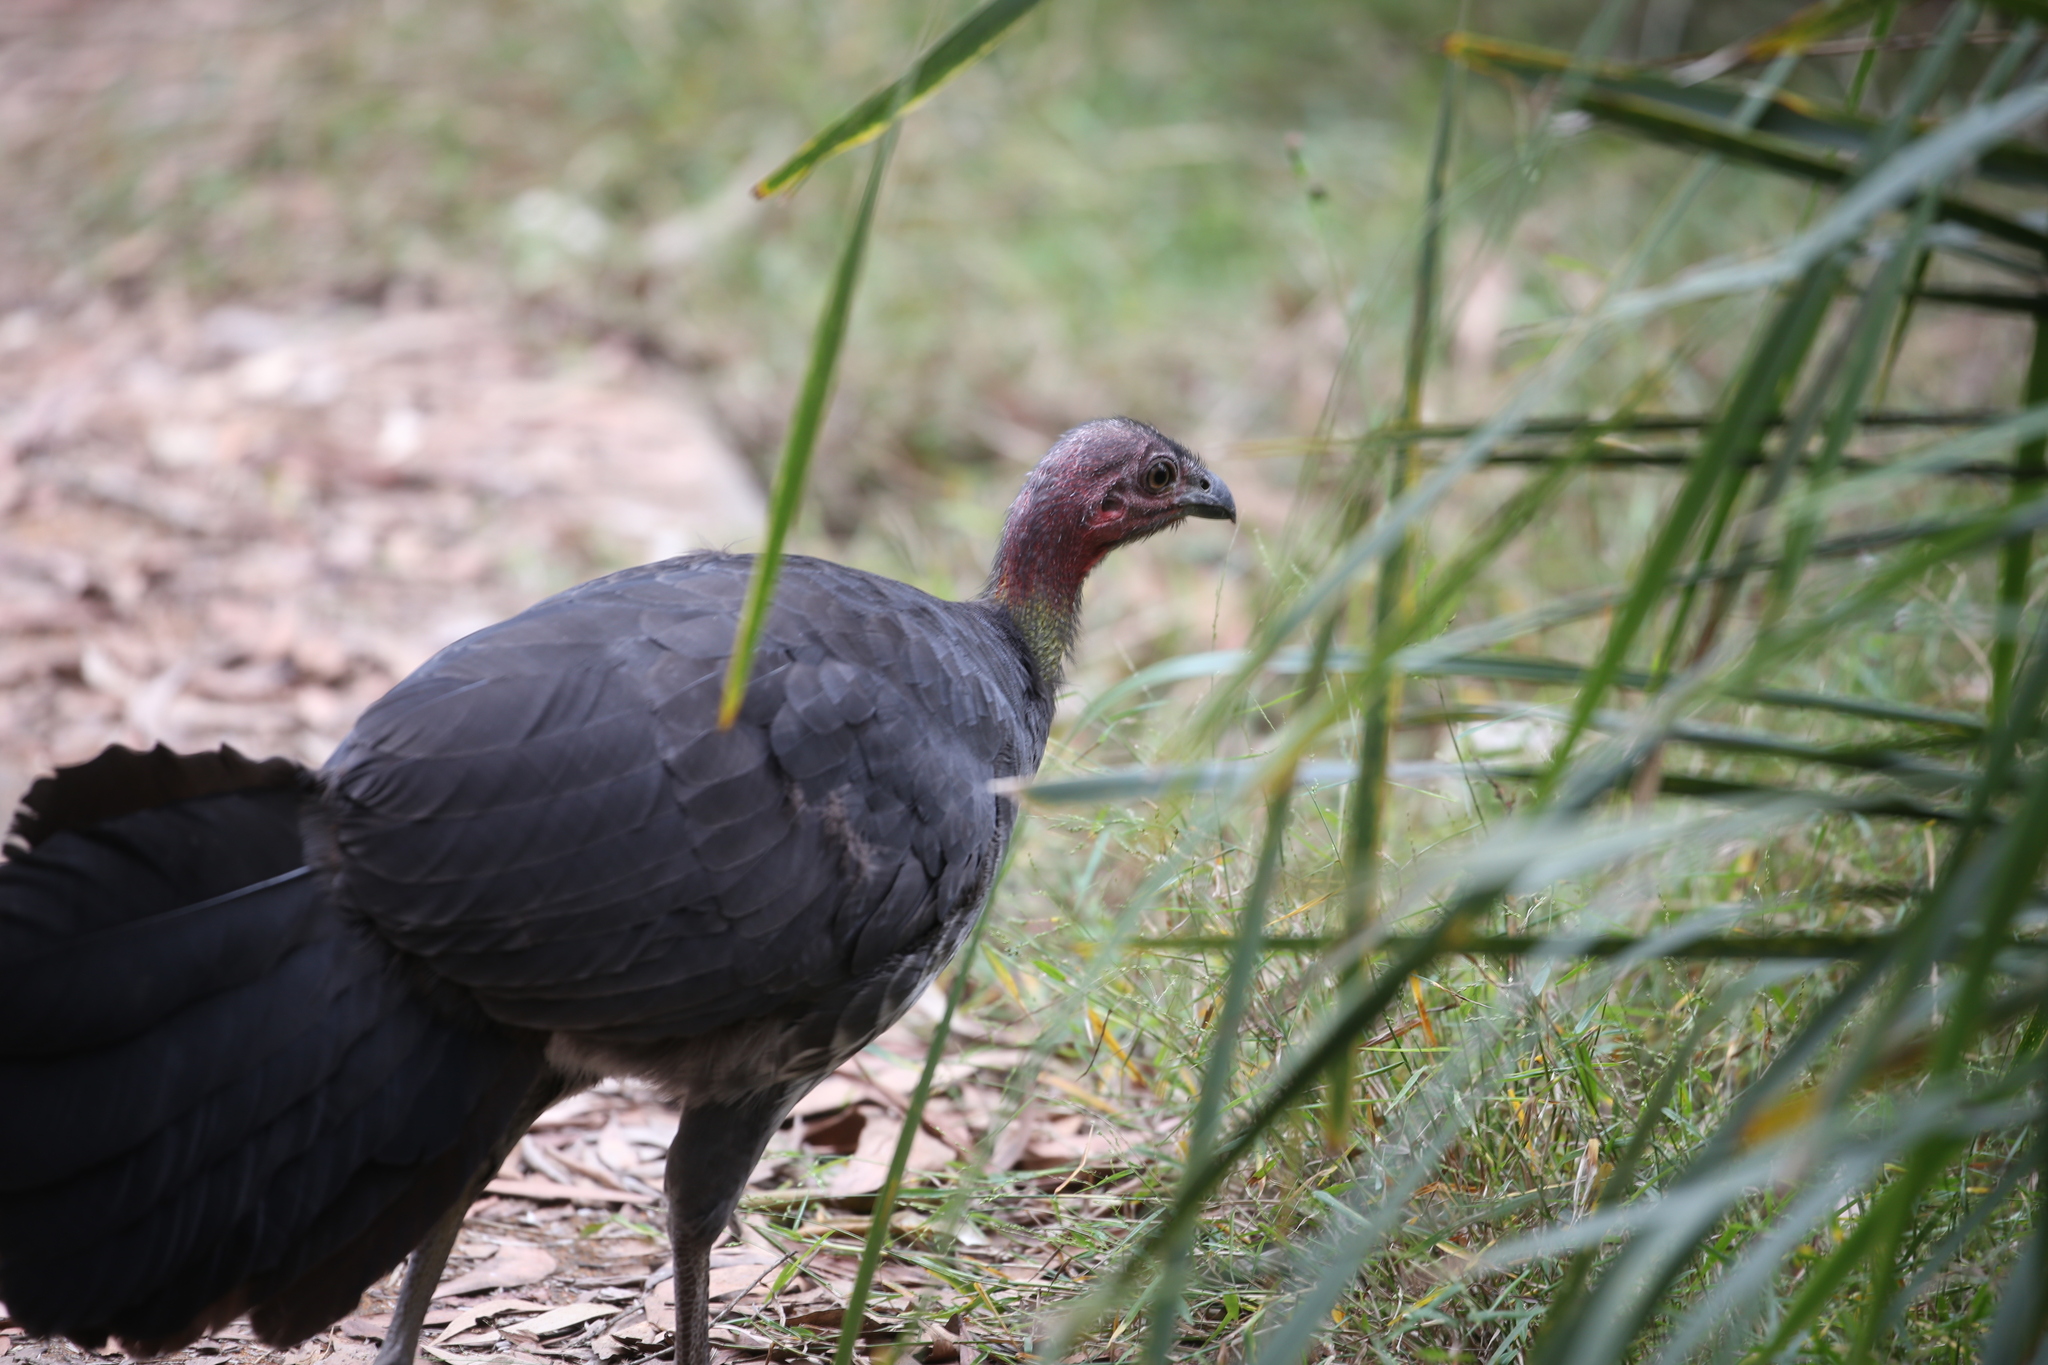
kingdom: Animalia
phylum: Chordata
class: Aves
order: Galliformes
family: Megapodiidae
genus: Alectura
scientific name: Alectura lathami
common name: Australian brushturkey
